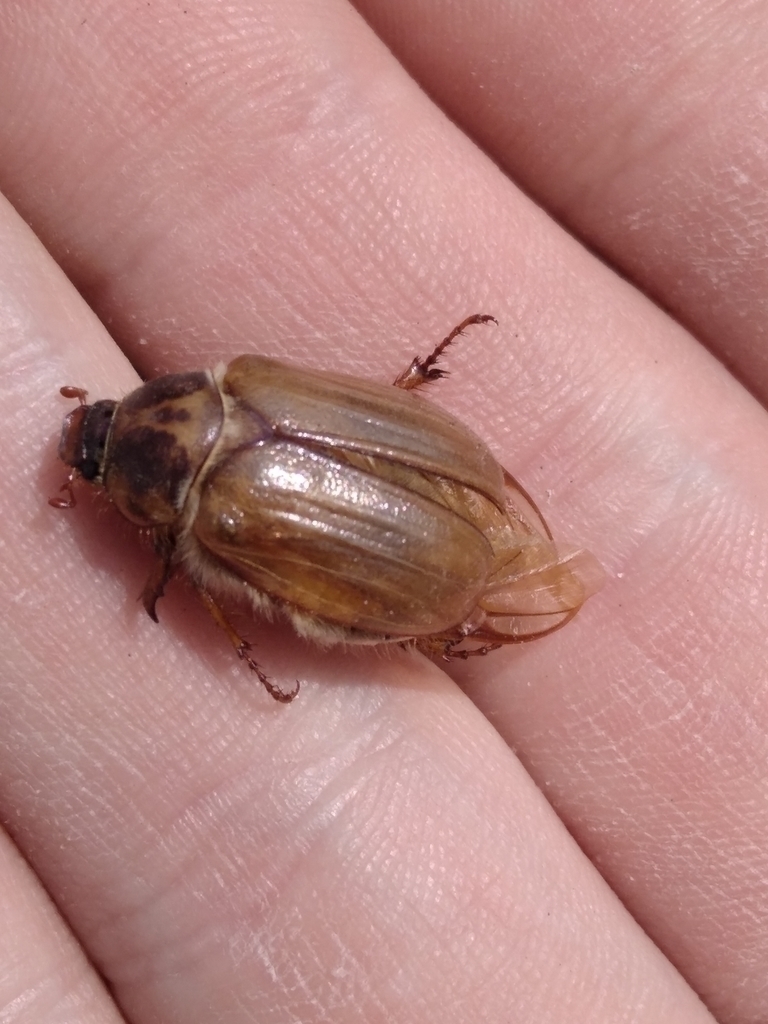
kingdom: Animalia
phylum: Arthropoda
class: Insecta
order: Coleoptera
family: Scarabaeidae
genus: Amphimallon
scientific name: Amphimallon solstitiale
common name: Summer chafer
